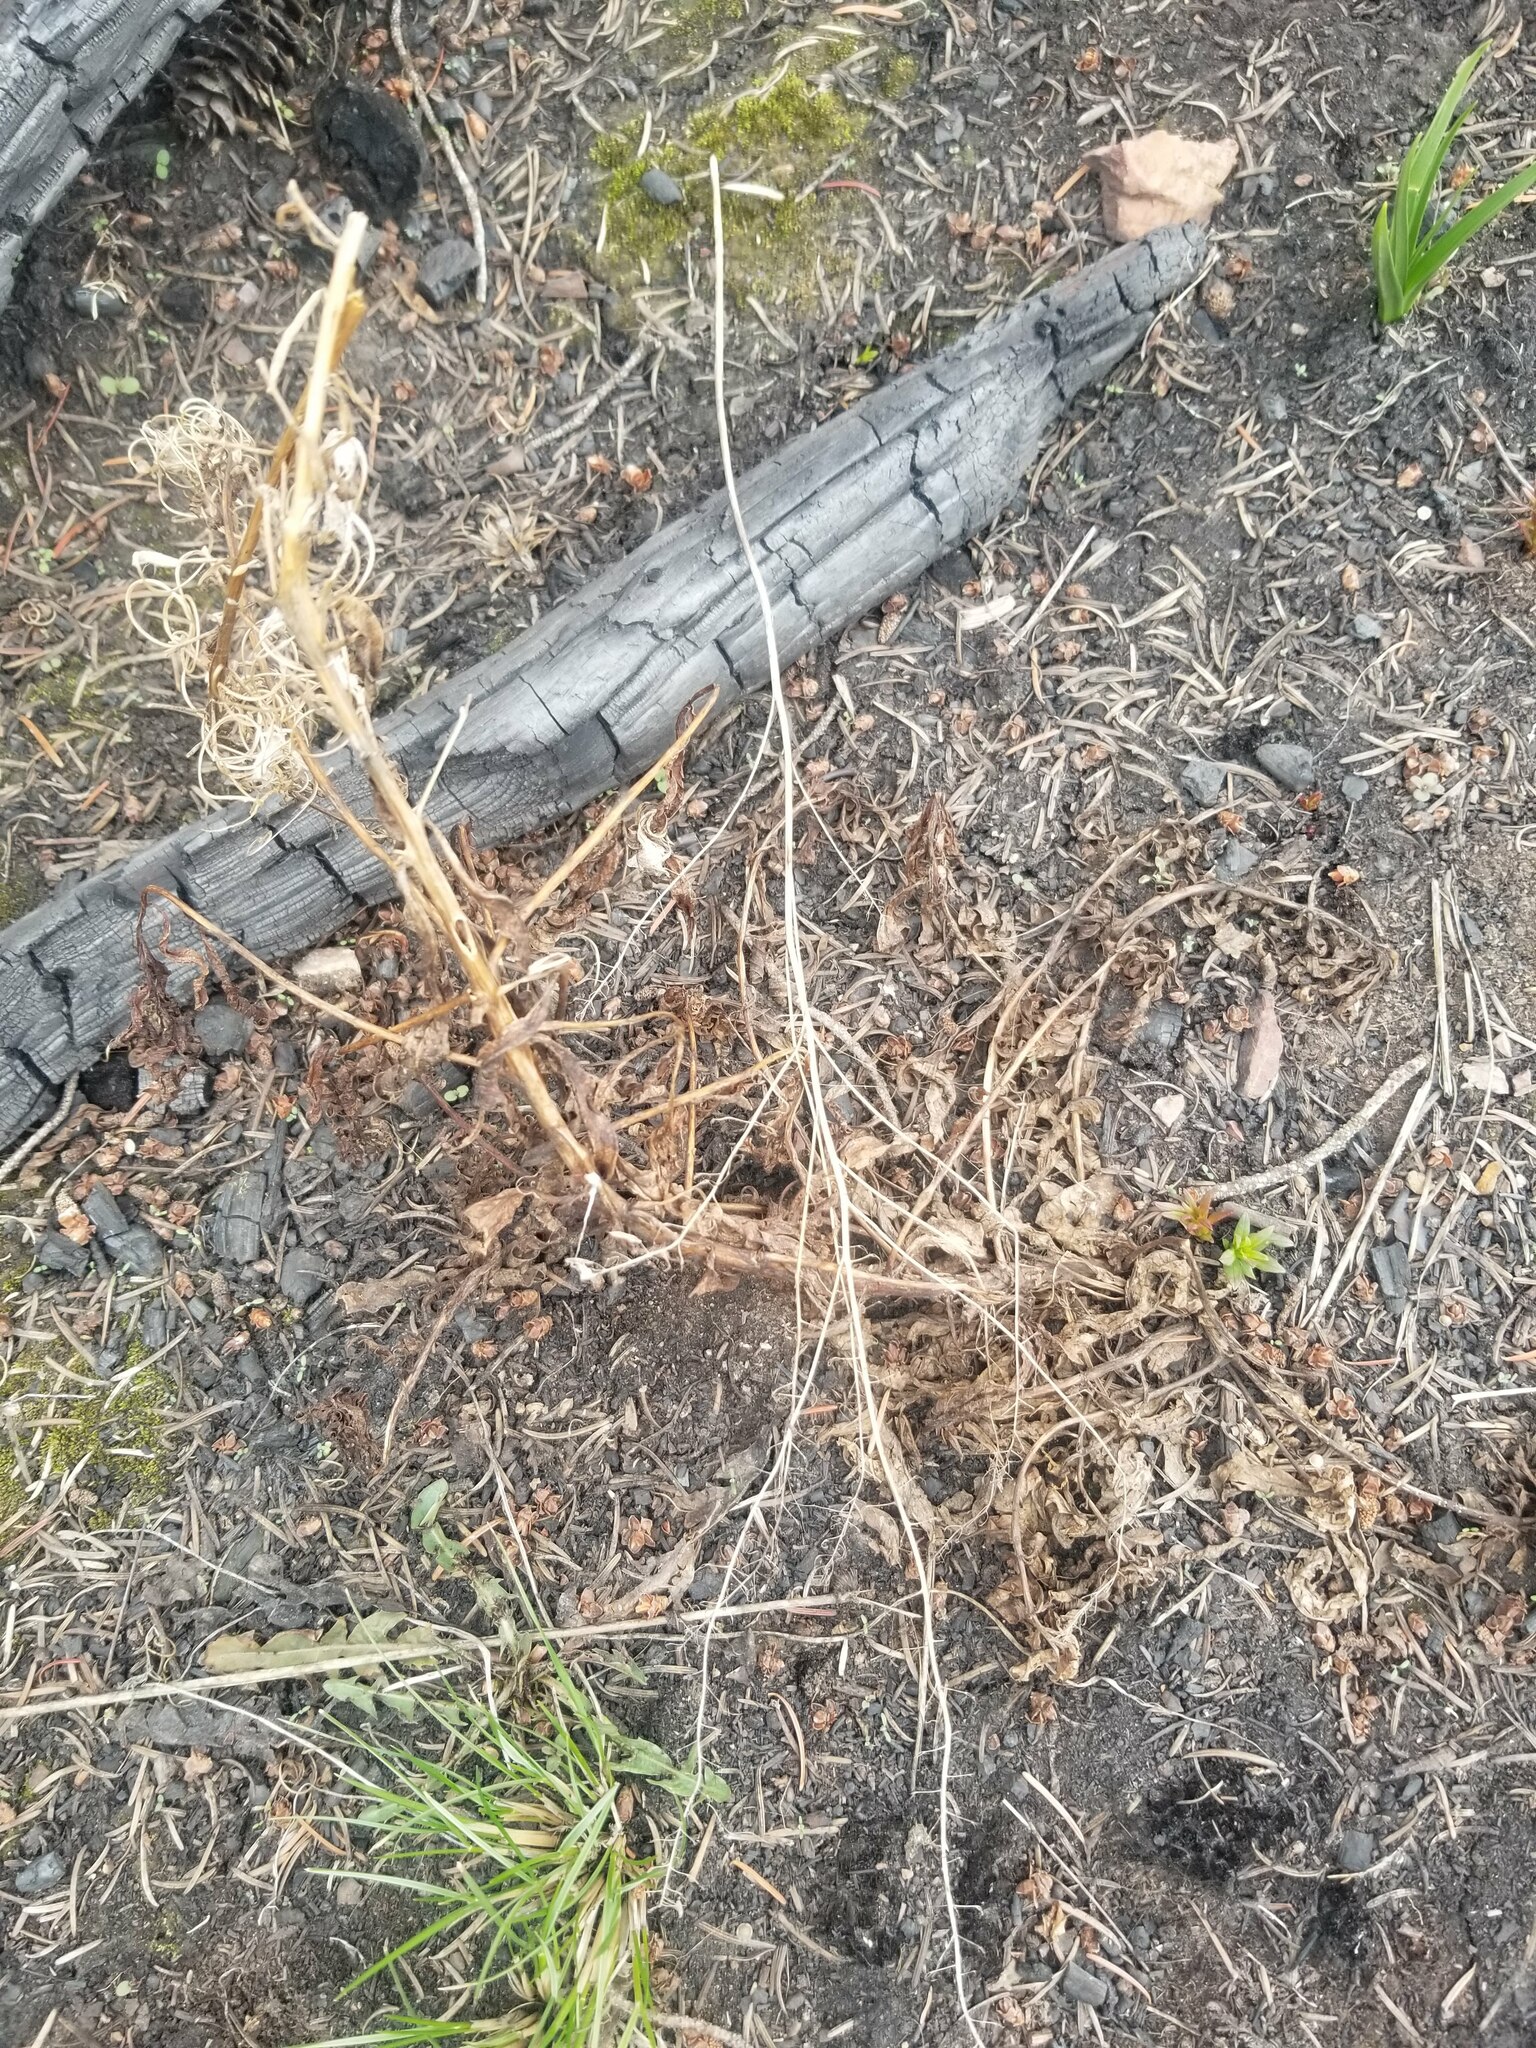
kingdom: Plantae
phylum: Tracheophyta
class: Magnoliopsida
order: Myrtales
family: Onagraceae
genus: Chamaenerion
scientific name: Chamaenerion angustifolium
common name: Fireweed
